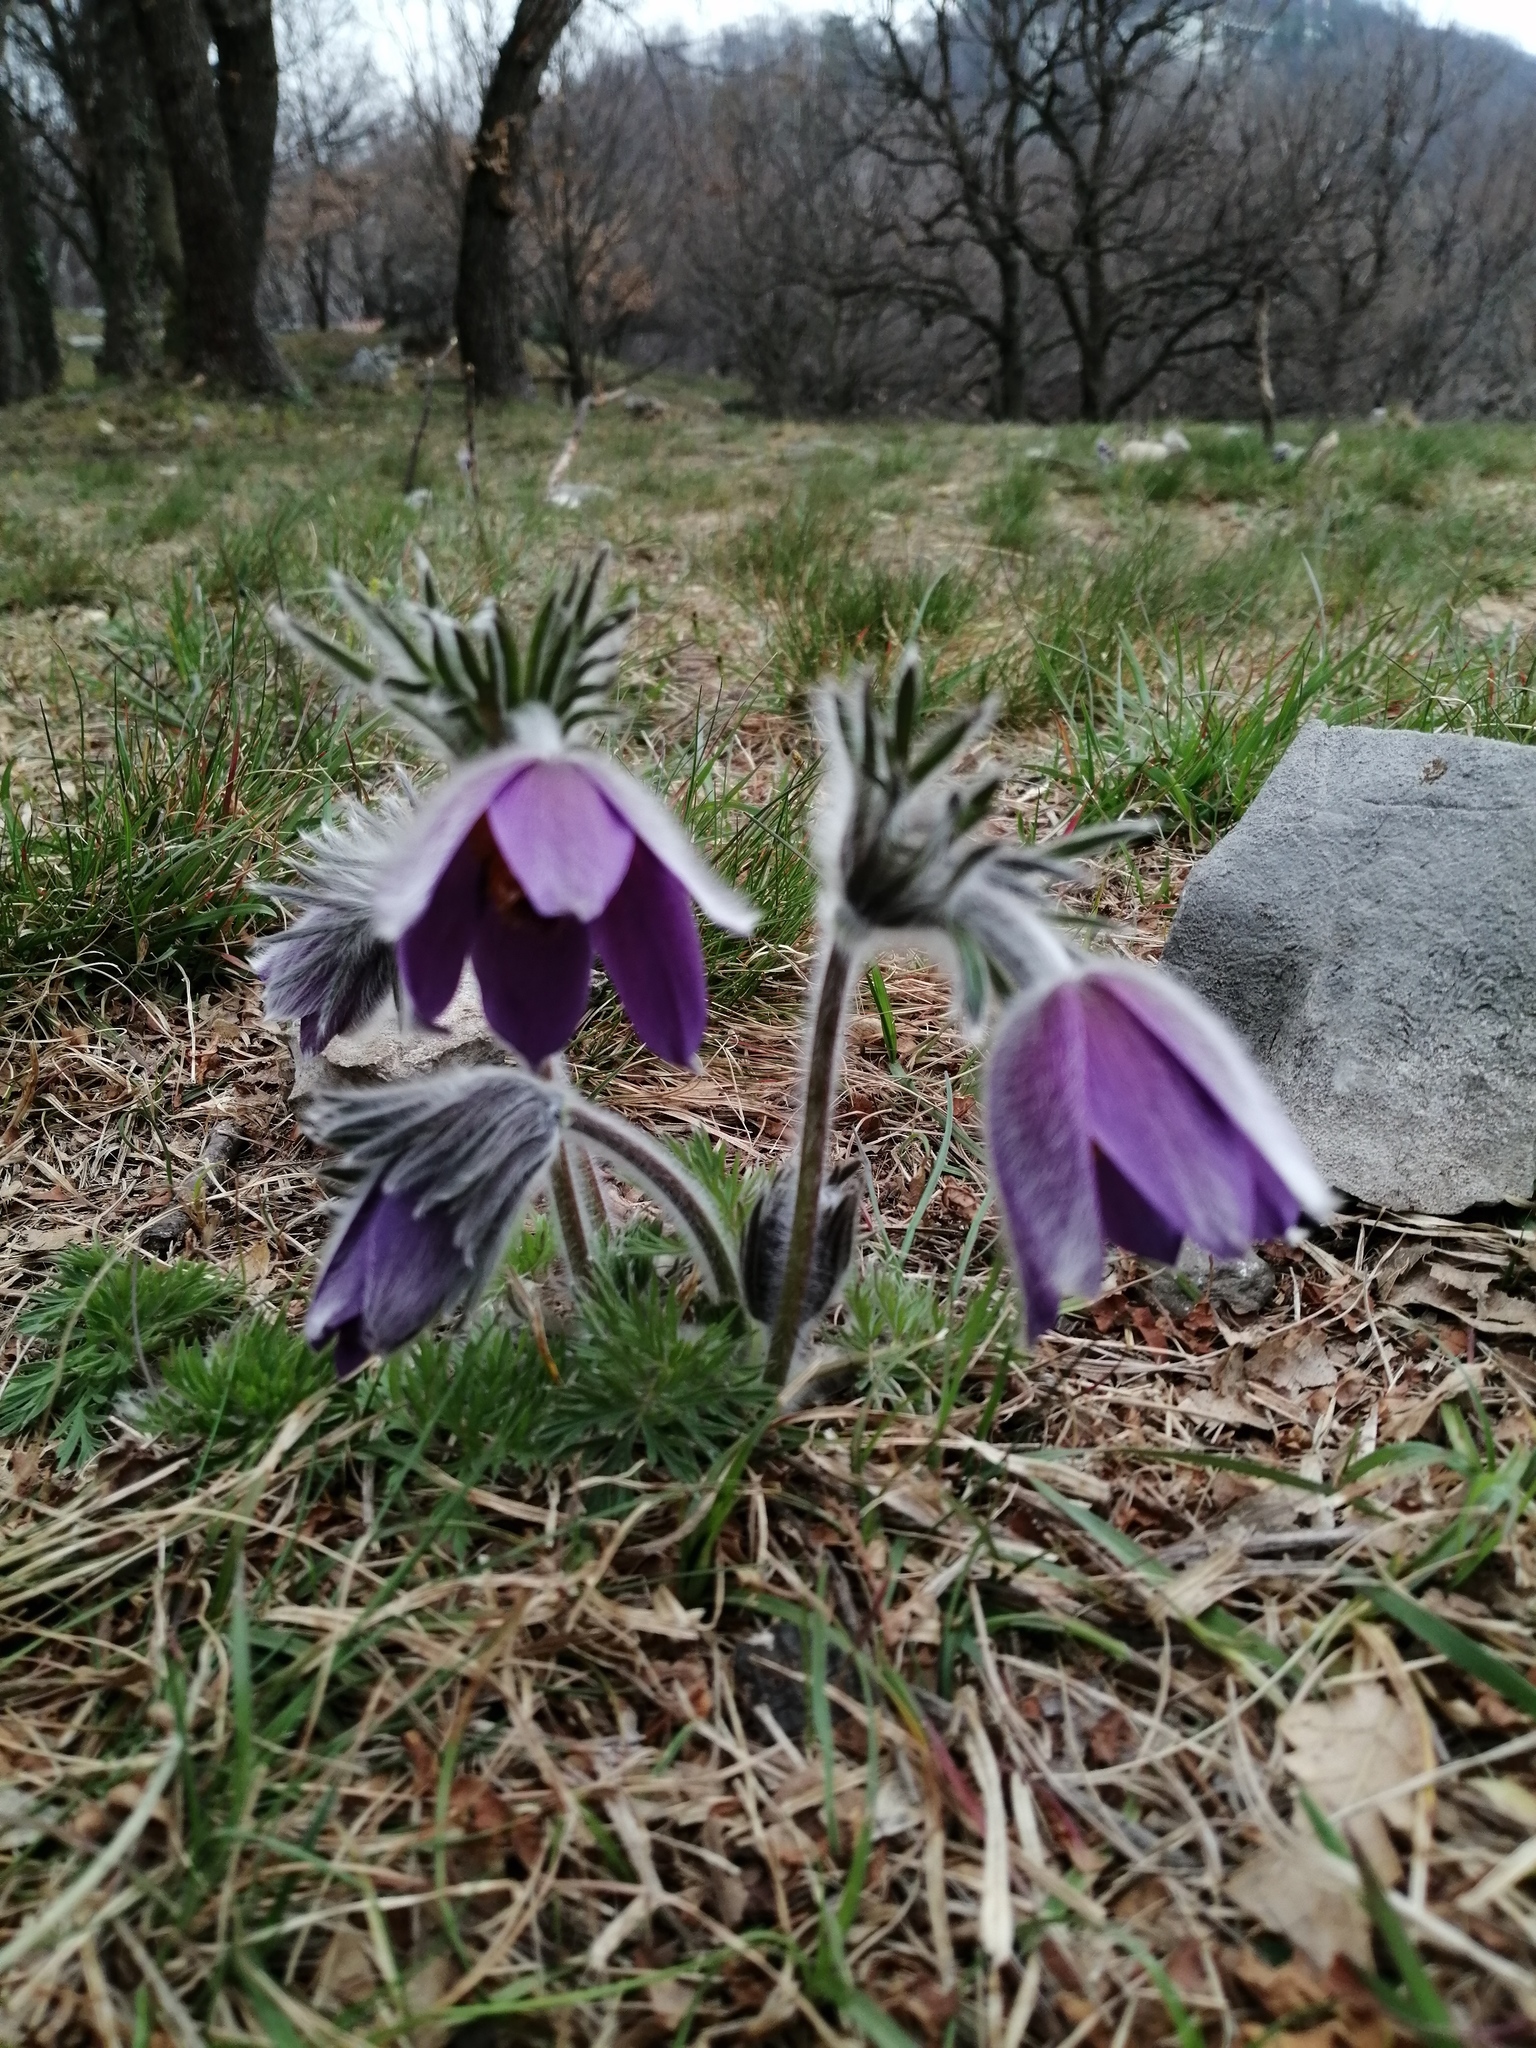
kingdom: Plantae
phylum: Tracheophyta
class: Magnoliopsida
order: Ranunculales
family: Ranunculaceae
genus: Pulsatilla
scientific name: Pulsatilla montana
